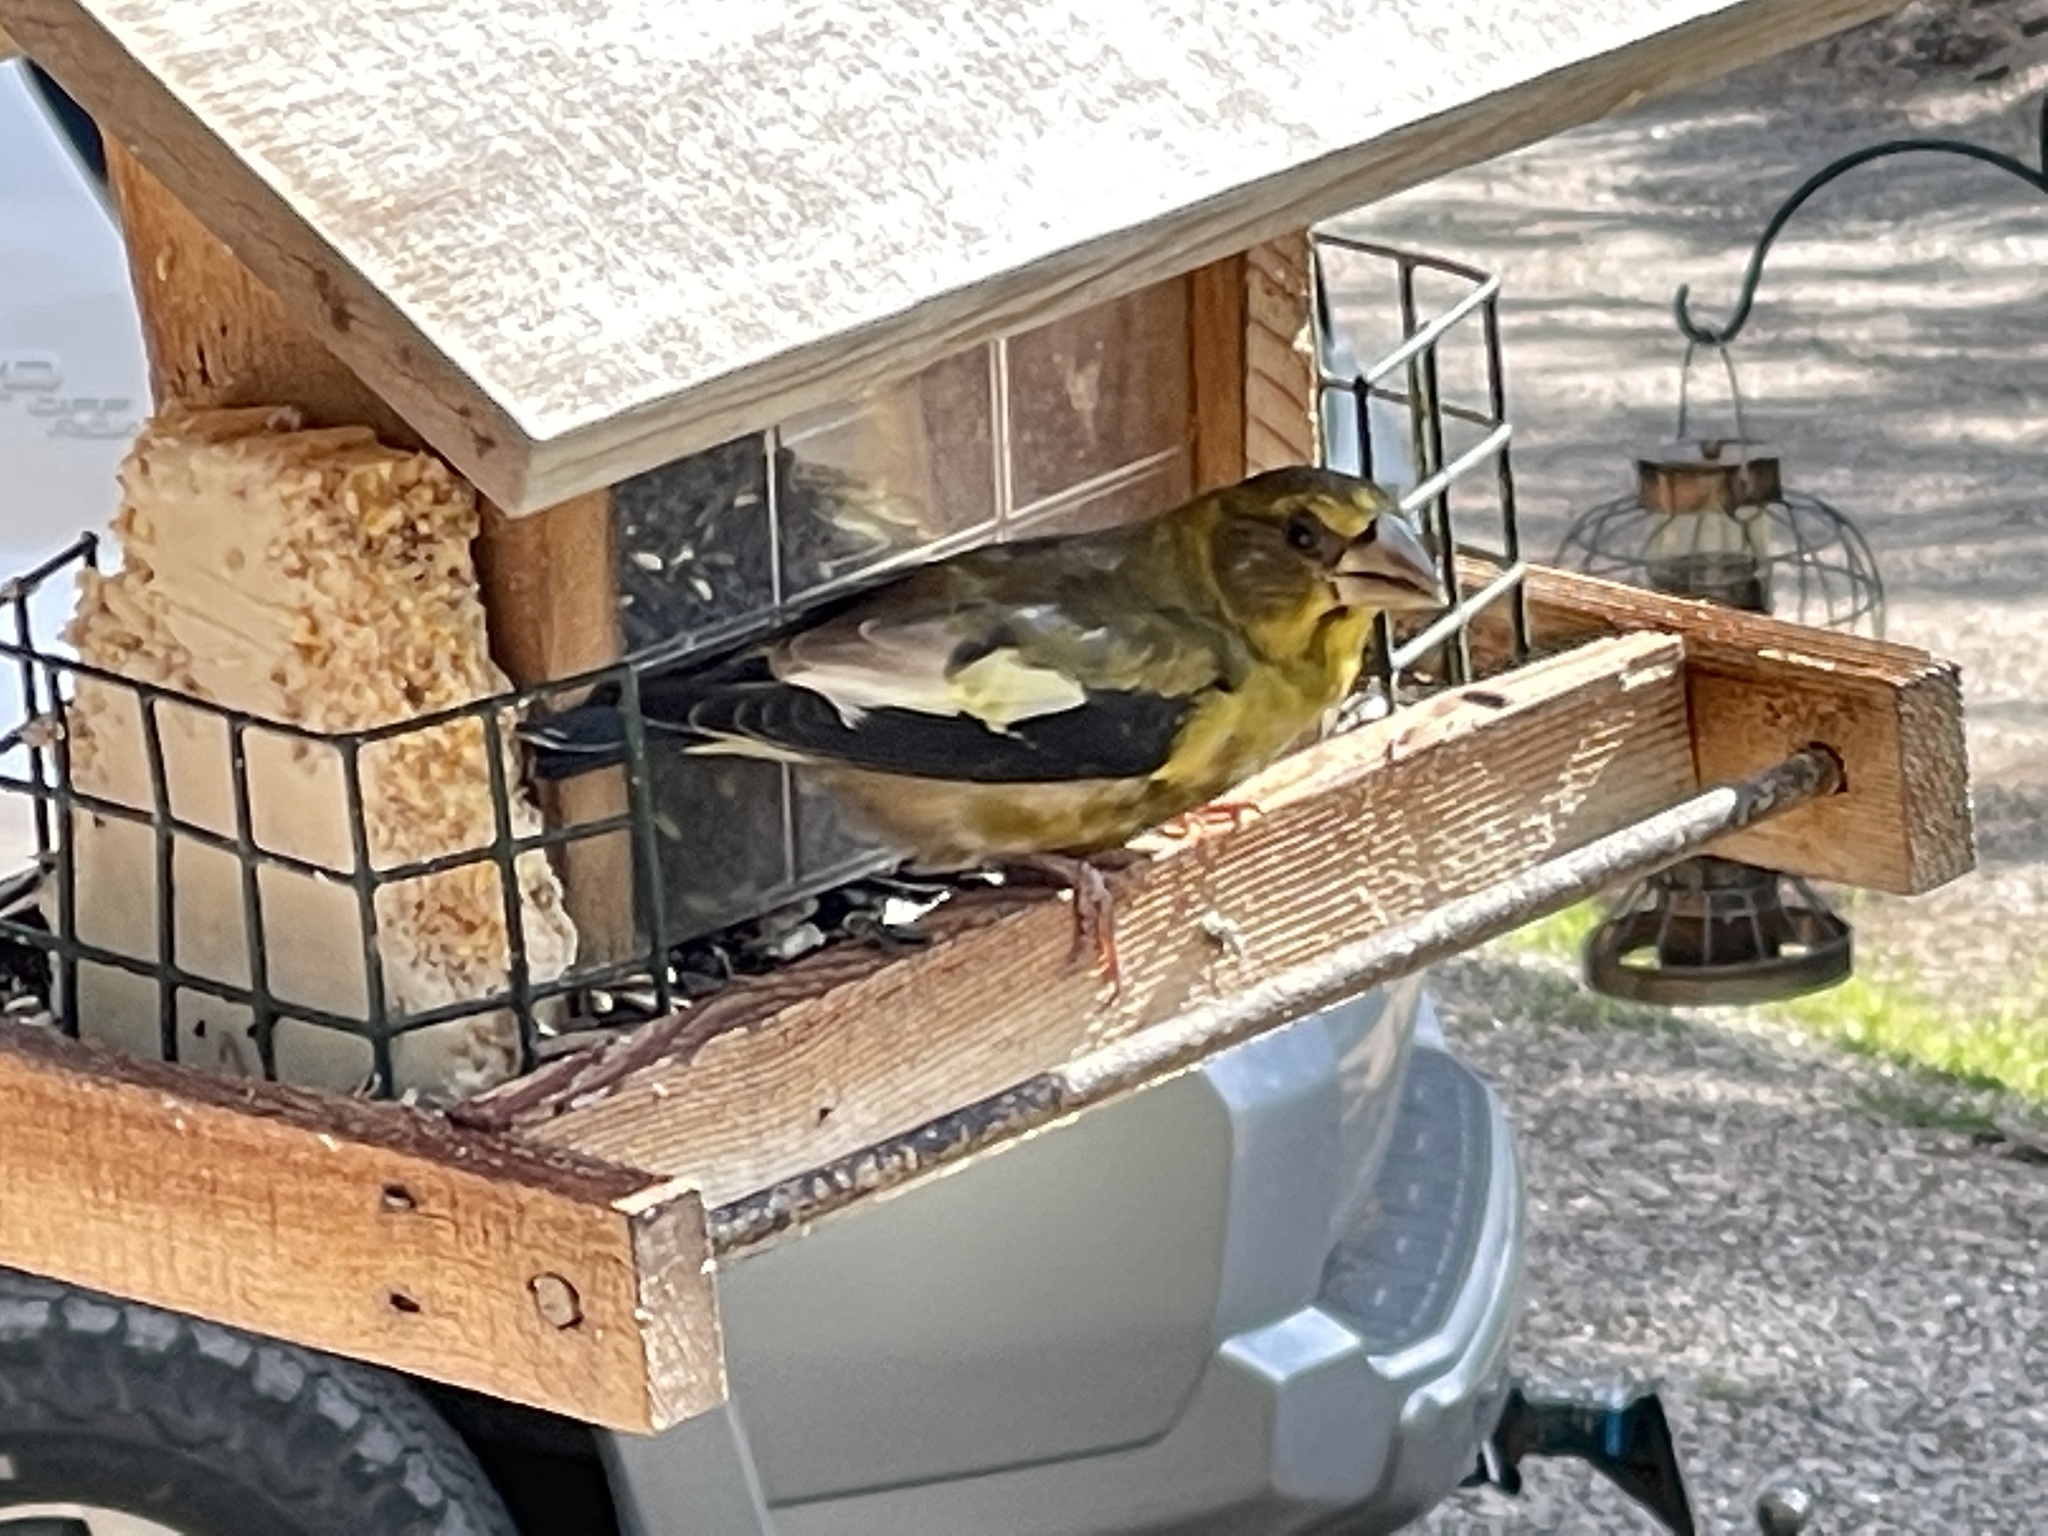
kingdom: Animalia
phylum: Chordata
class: Aves
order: Passeriformes
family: Fringillidae
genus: Hesperiphona
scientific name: Hesperiphona vespertina
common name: Evening grosbeak
